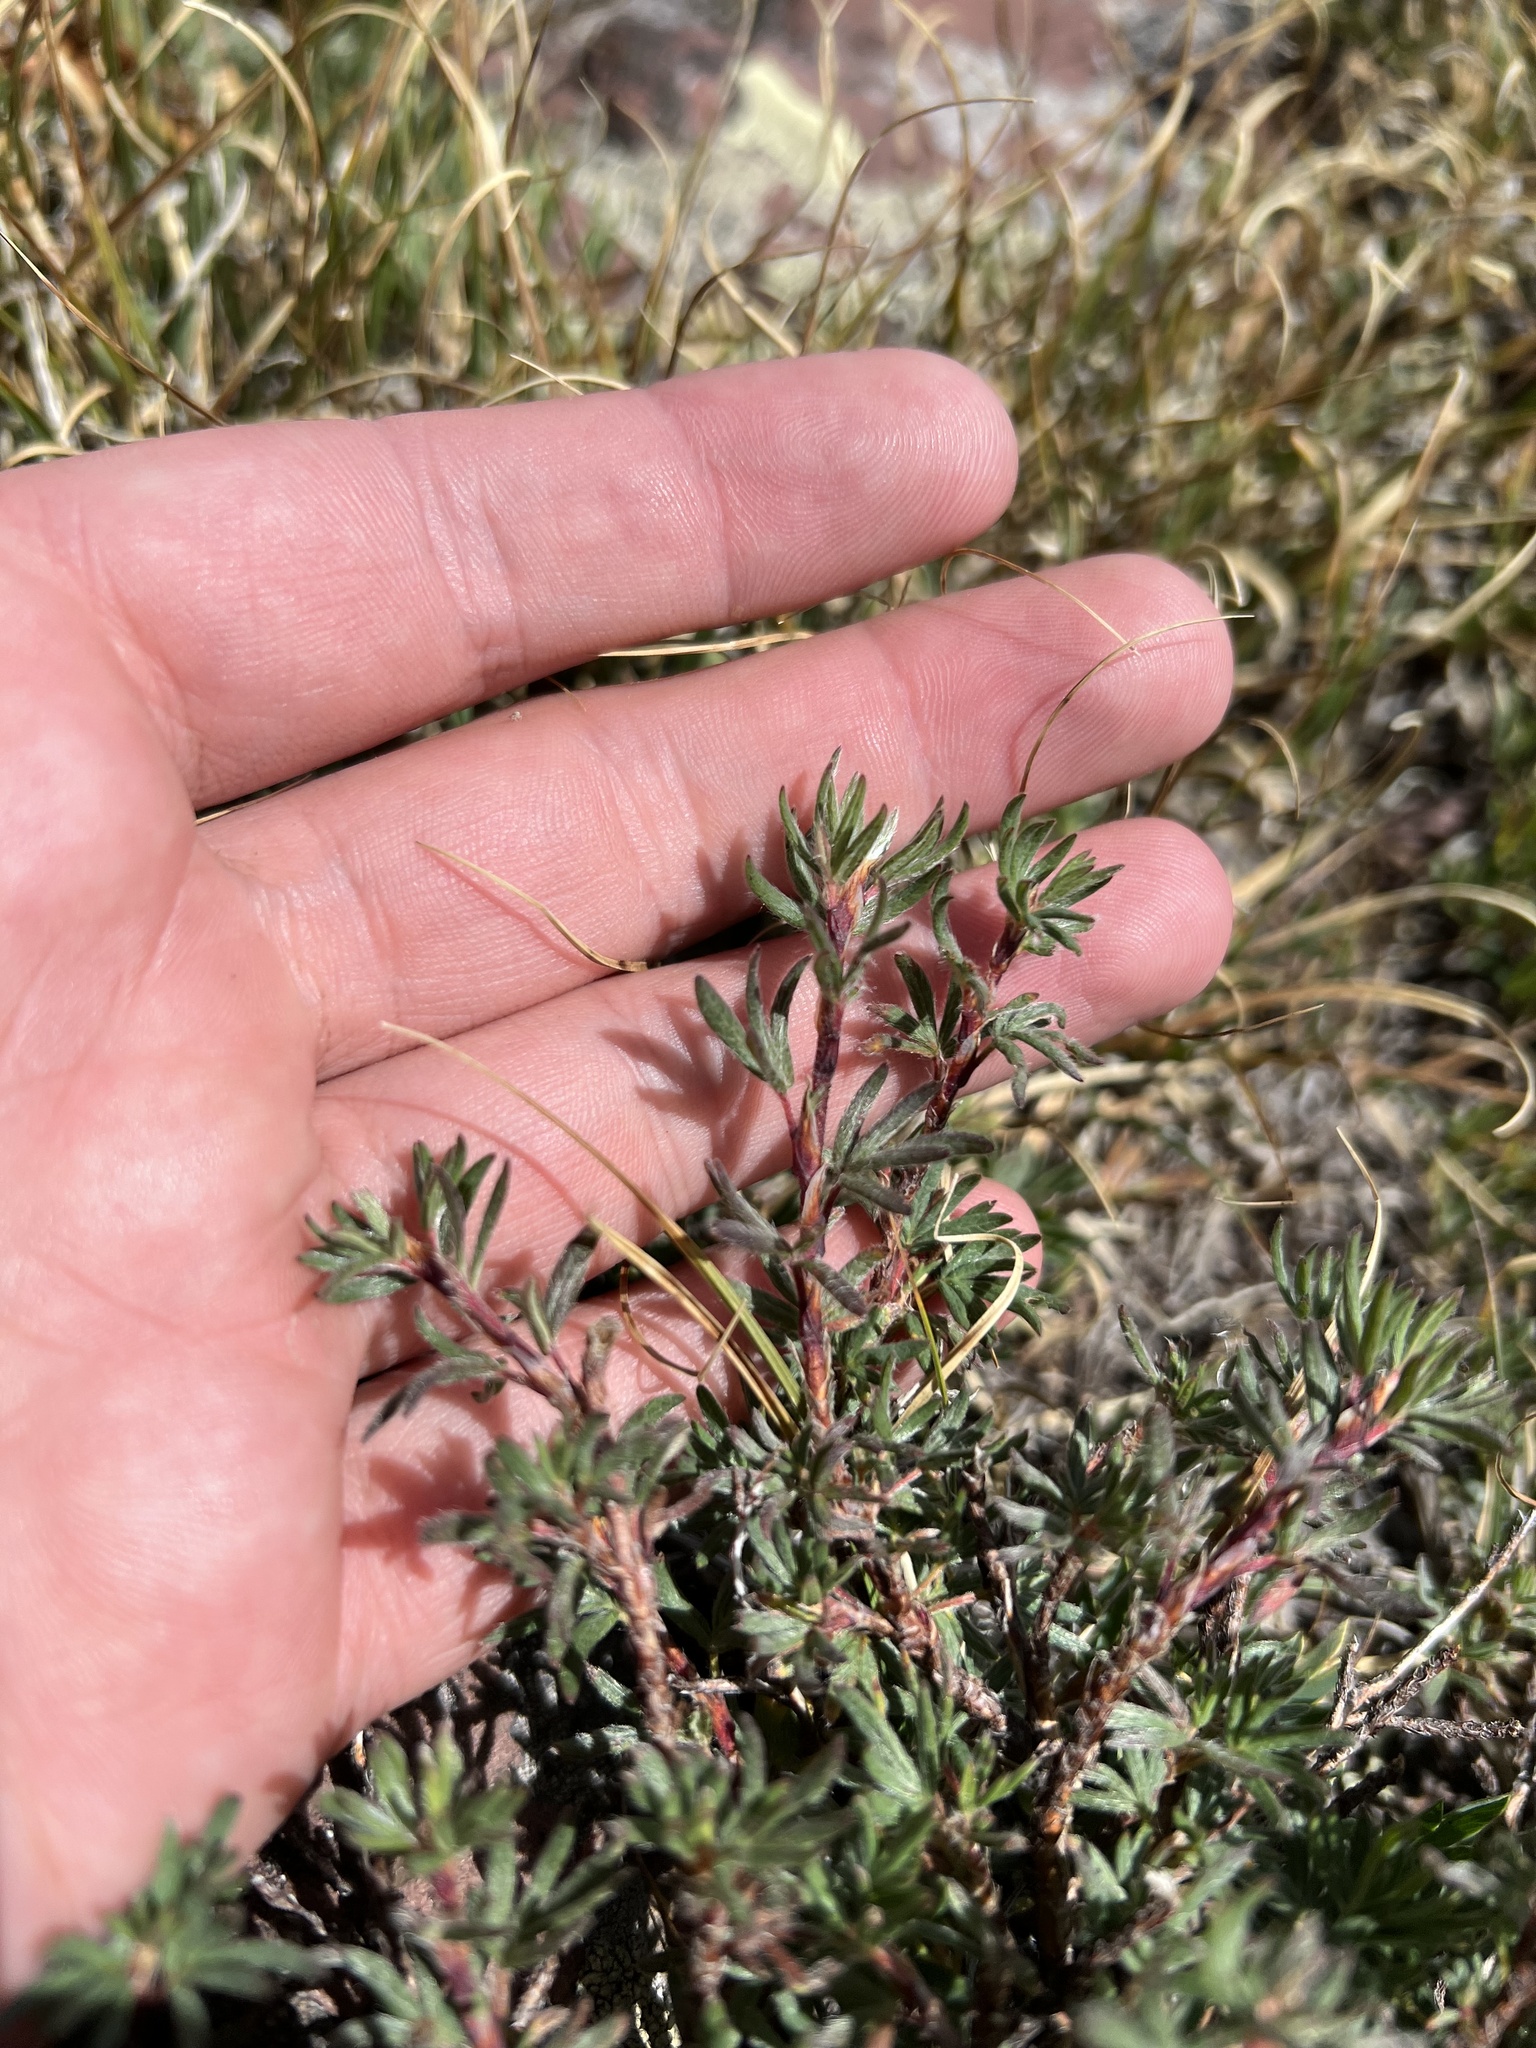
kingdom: Plantae
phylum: Tracheophyta
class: Magnoliopsida
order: Rosales
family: Rosaceae
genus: Dasiphora
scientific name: Dasiphora fruticosa
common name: Shrubby cinquefoil
